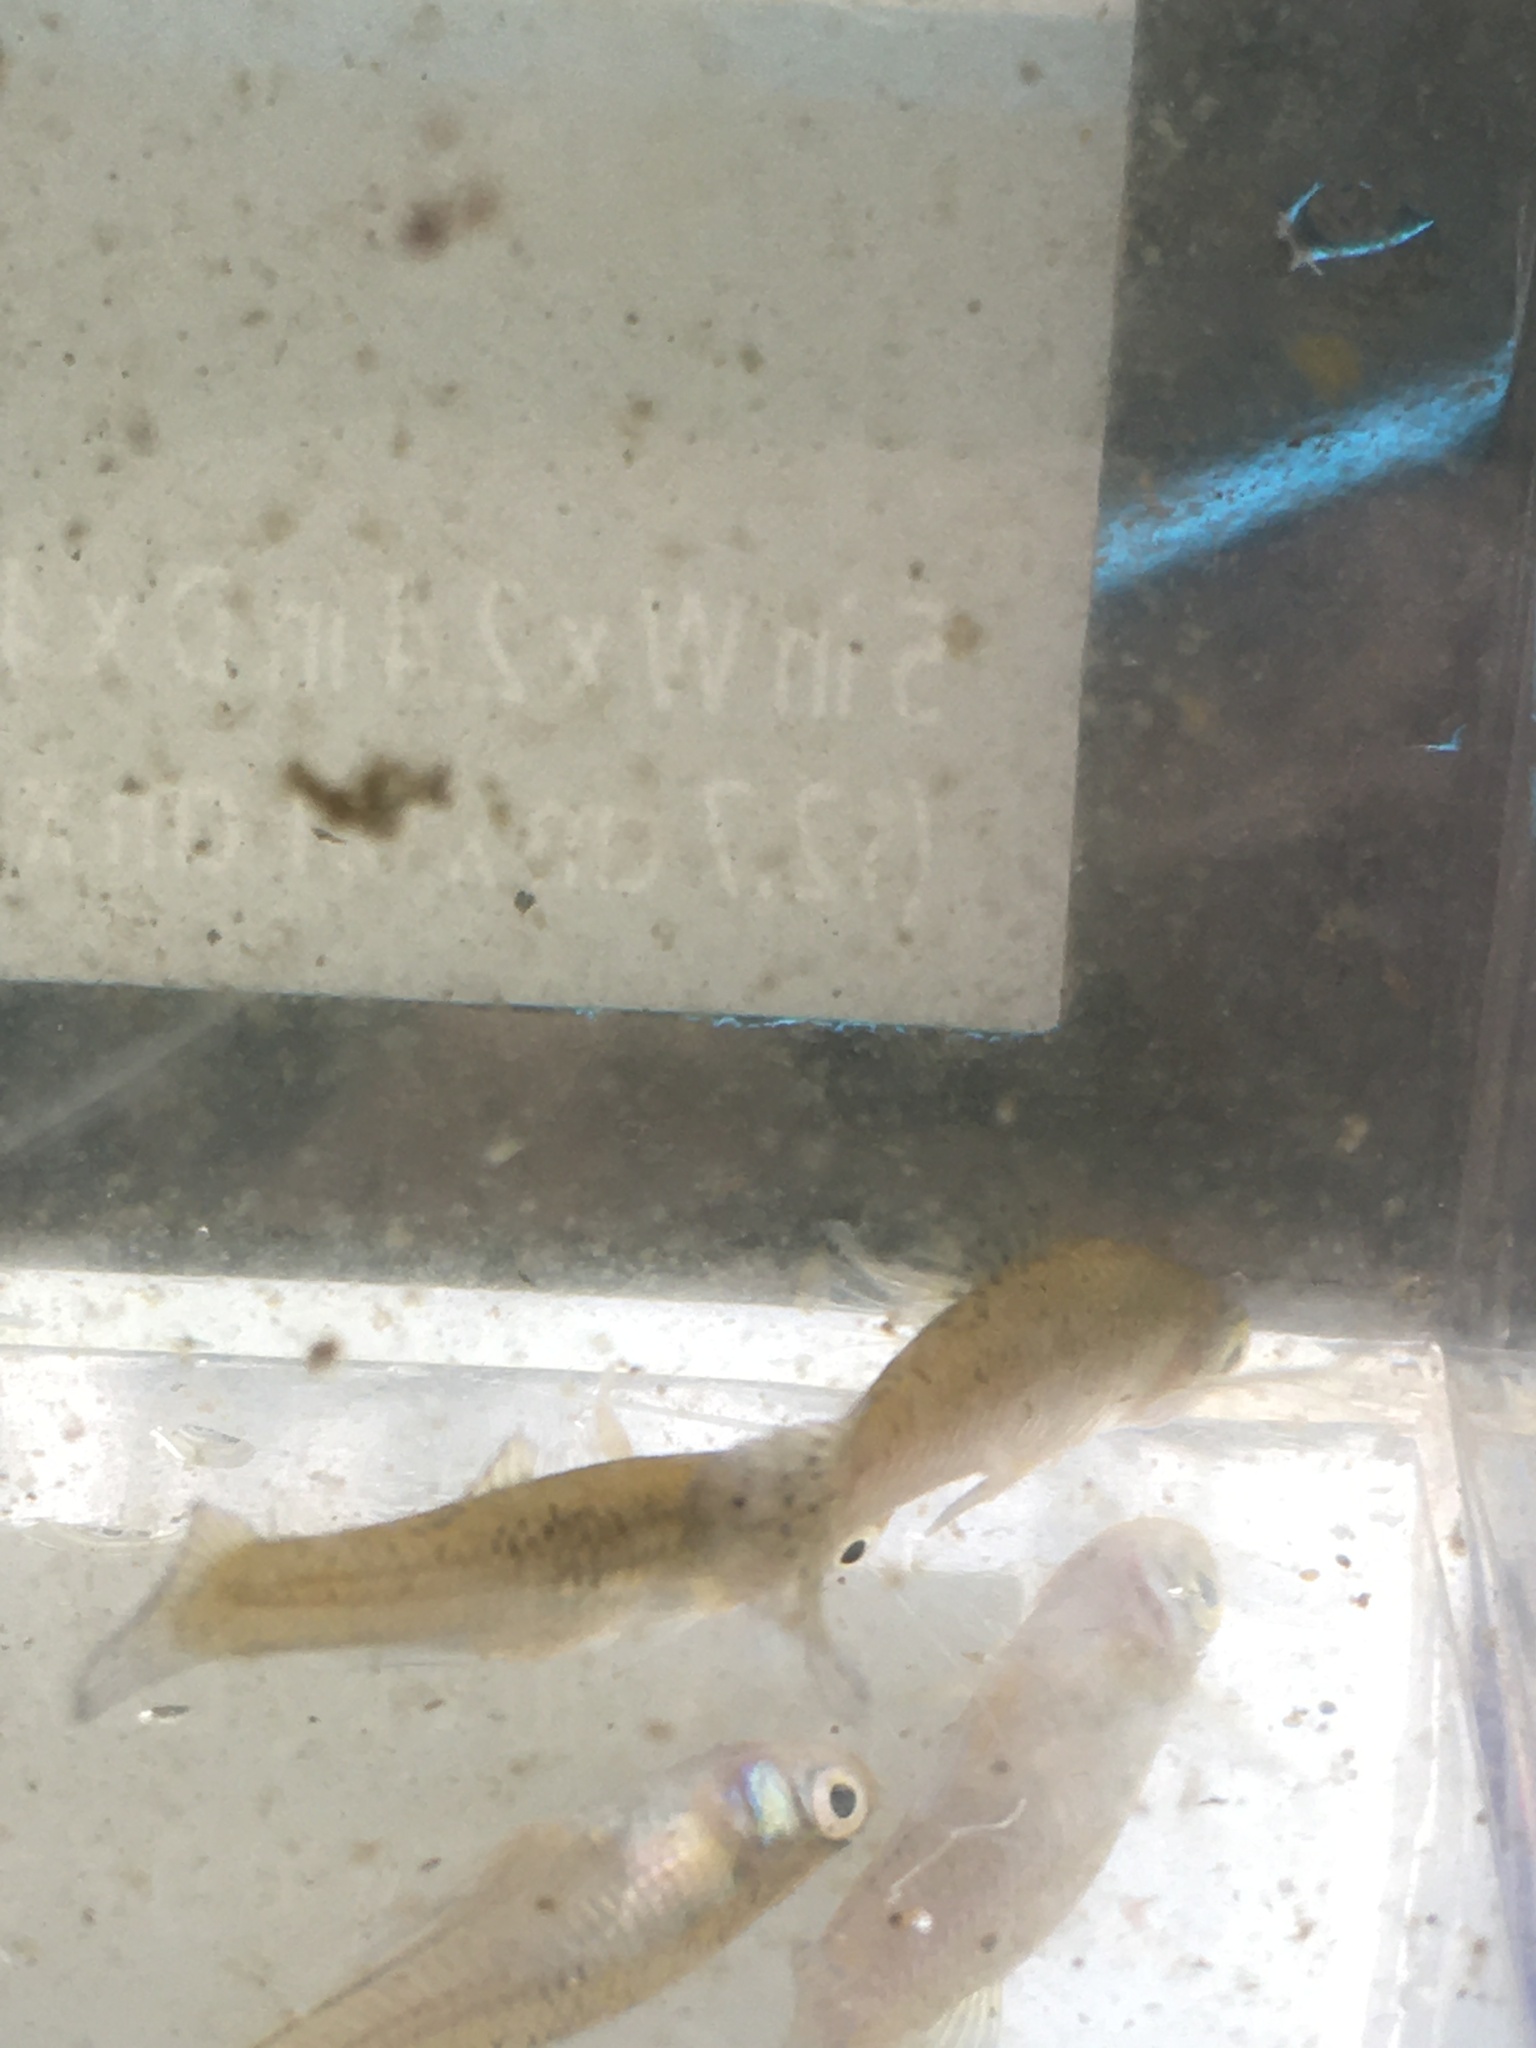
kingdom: Animalia
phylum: Chordata
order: Cyprinodontiformes
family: Poeciliidae
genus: Gambusia
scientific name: Gambusia holbrooki
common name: Eastern mosquitofish
